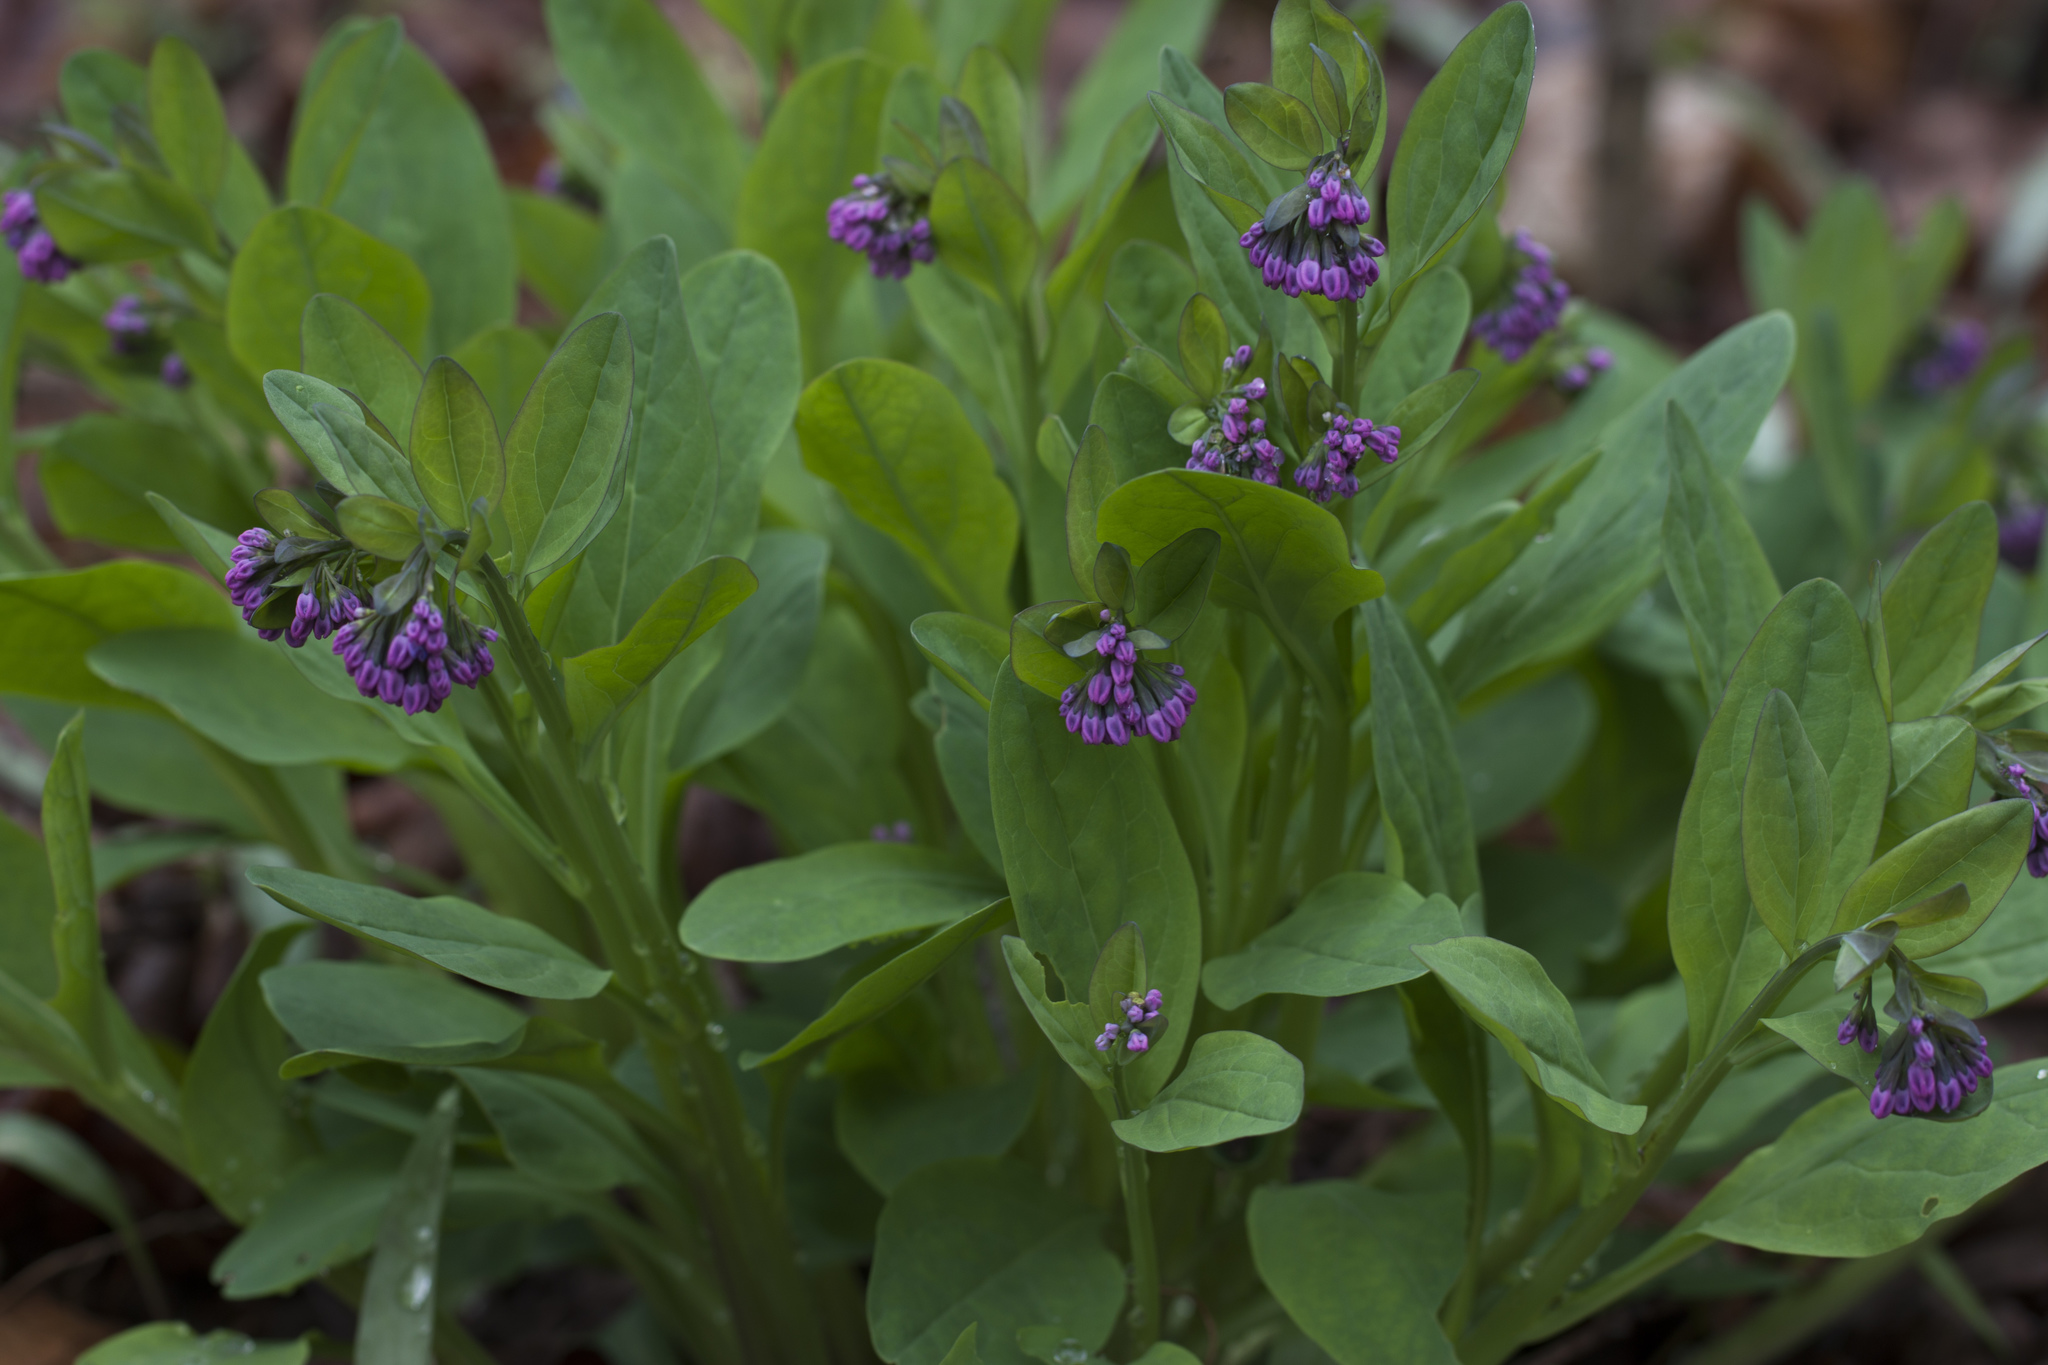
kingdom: Plantae
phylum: Tracheophyta
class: Magnoliopsida
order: Boraginales
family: Boraginaceae
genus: Mertensia
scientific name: Mertensia virginica
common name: Virginia bluebells
